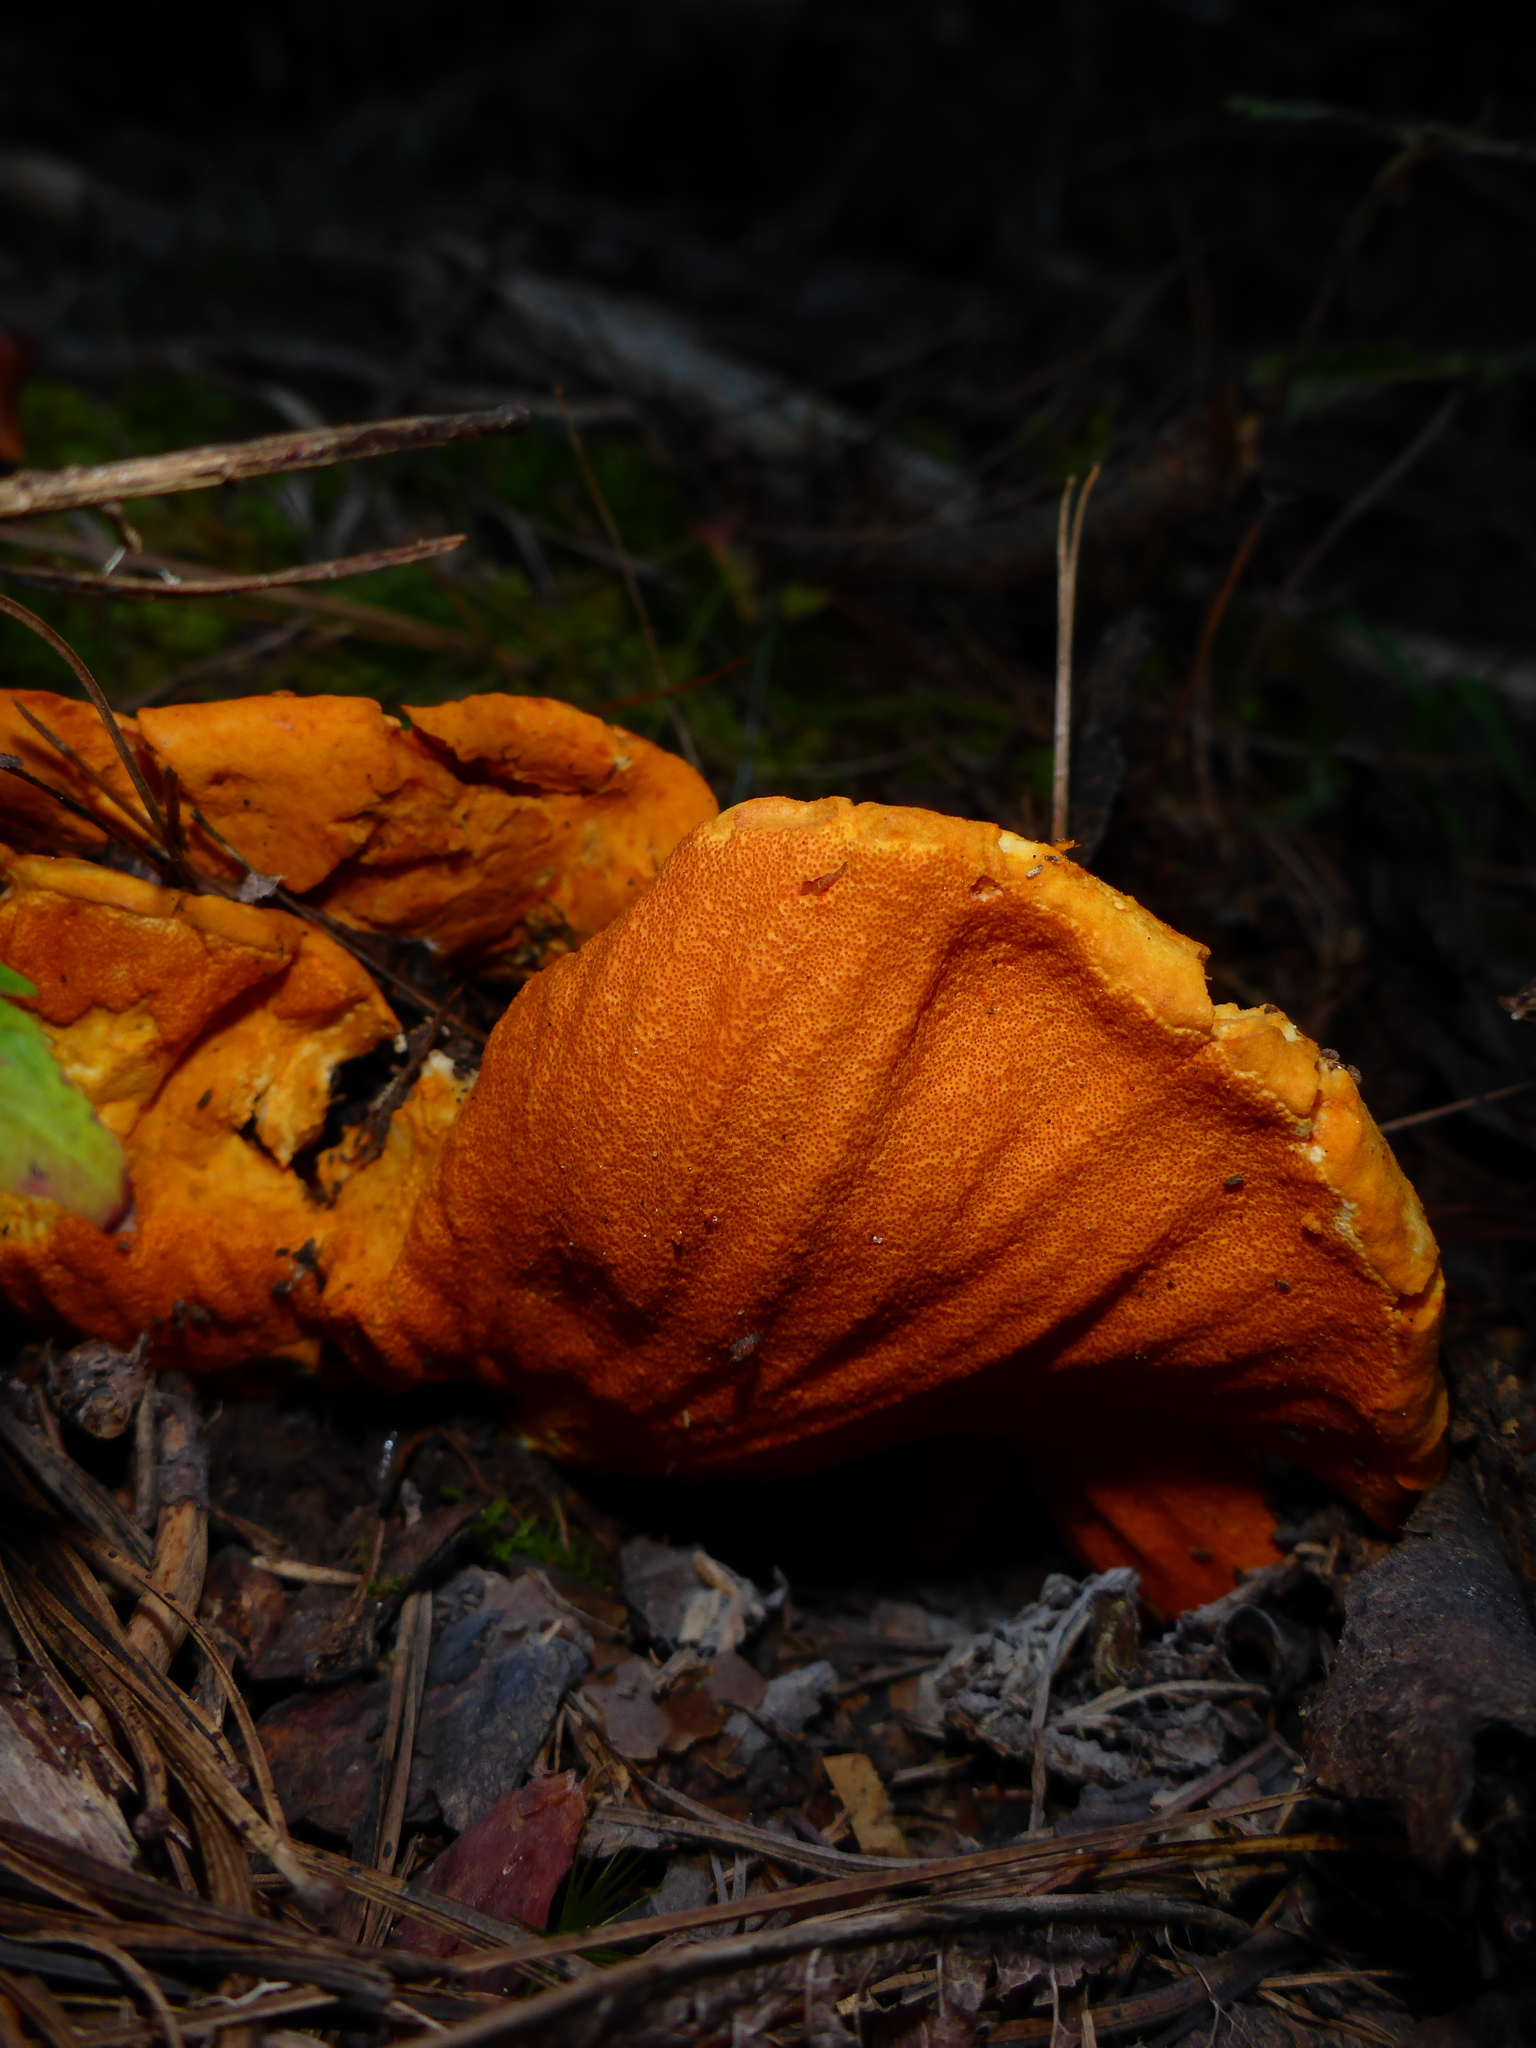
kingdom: Fungi
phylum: Ascomycota
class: Sordariomycetes
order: Hypocreales
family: Hypocreaceae
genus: Hypomyces
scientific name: Hypomyces lactifluorum
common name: Lobster mushroom
